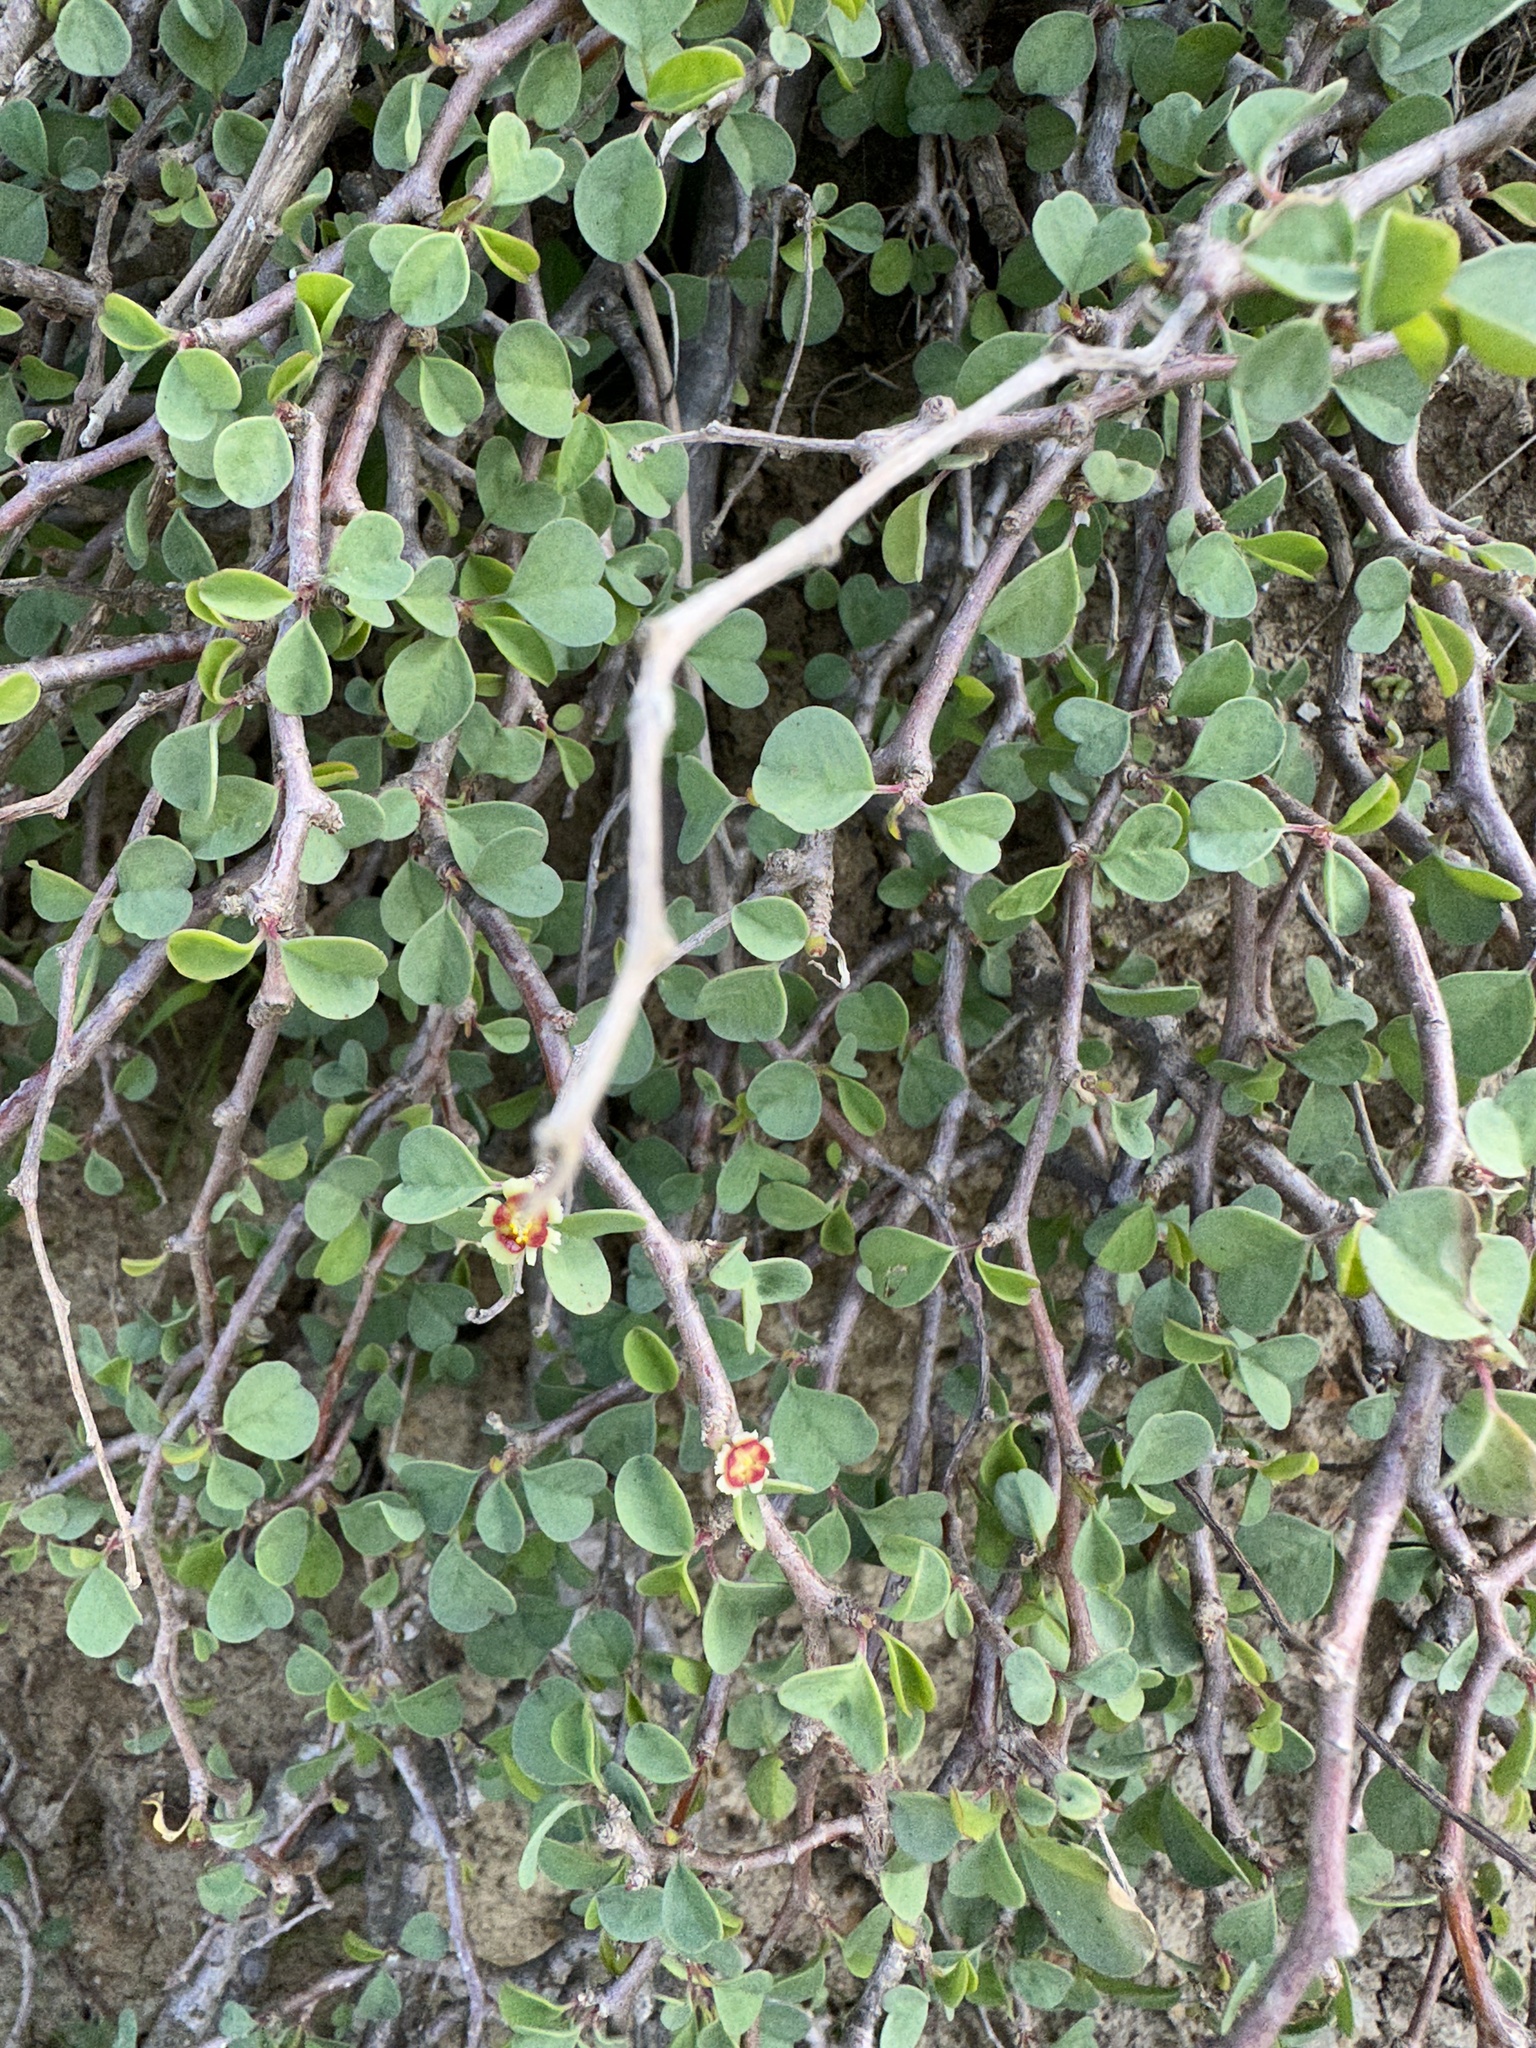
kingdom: Plantae
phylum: Tracheophyta
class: Magnoliopsida
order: Malpighiales
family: Euphorbiaceae
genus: Euphorbia
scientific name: Euphorbia misera
